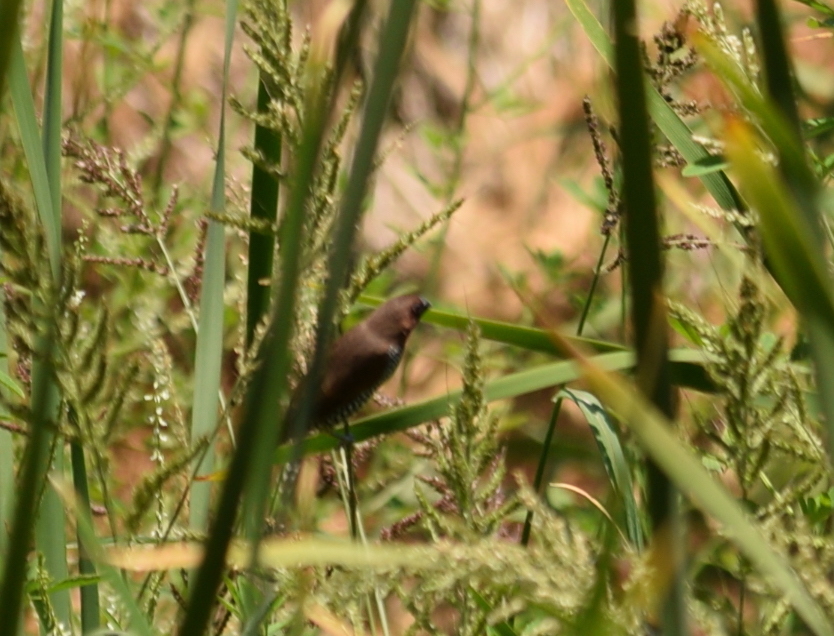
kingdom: Animalia
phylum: Chordata
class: Aves
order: Passeriformes
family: Estrildidae
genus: Lonchura
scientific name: Lonchura punctulata
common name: Scaly-breasted munia
